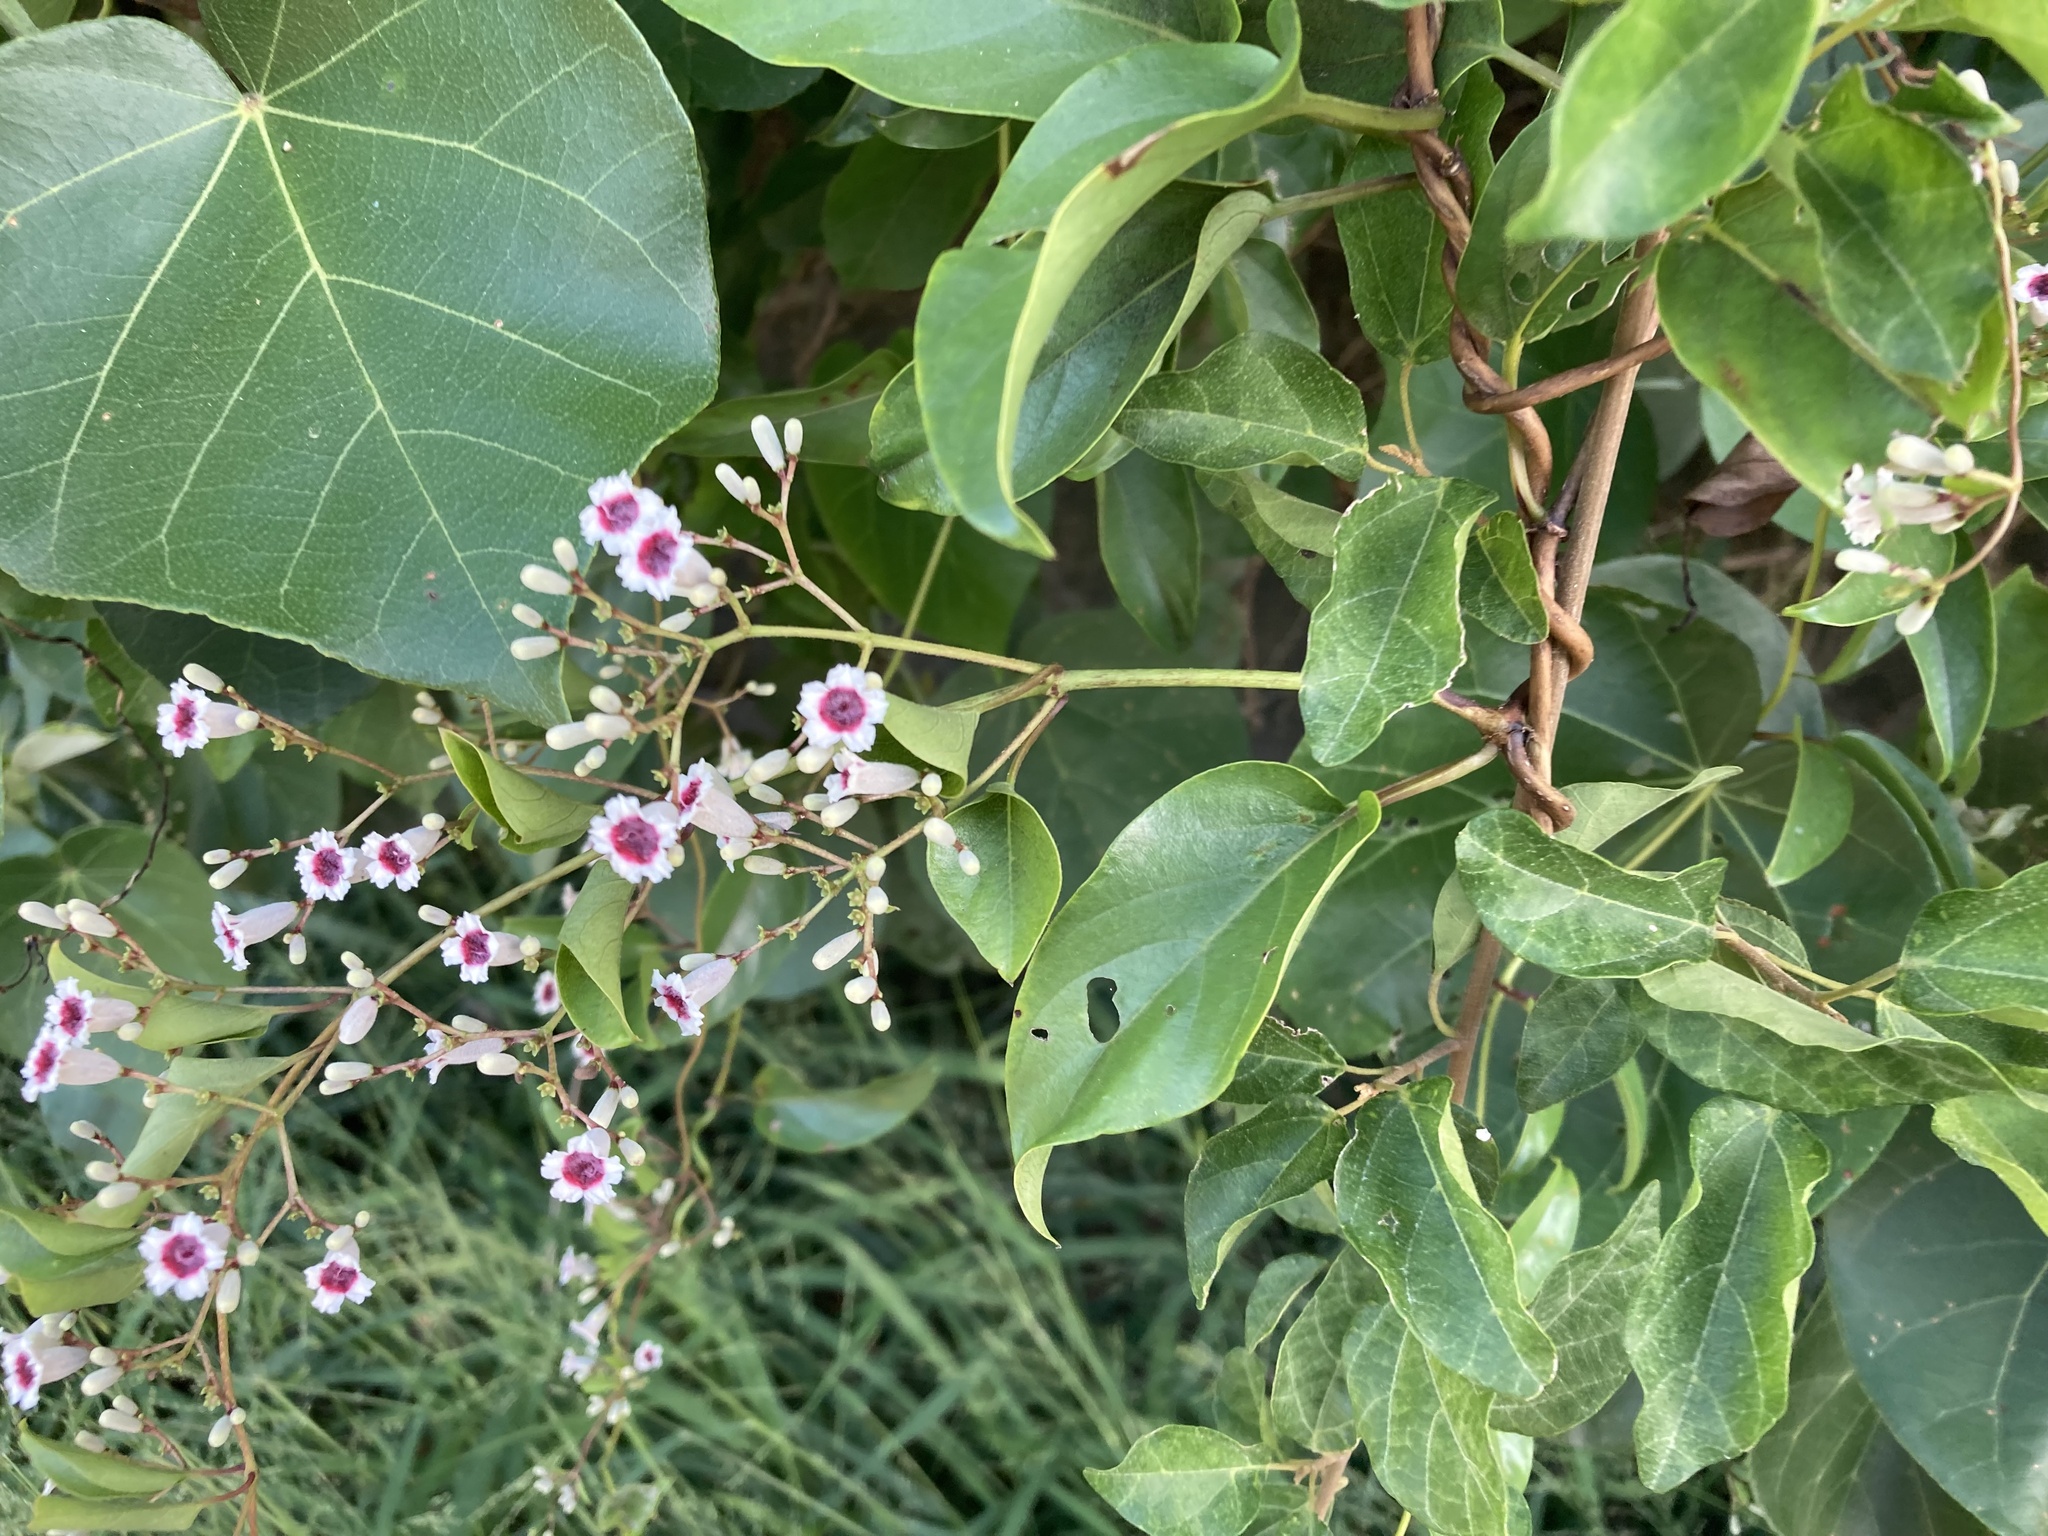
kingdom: Plantae
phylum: Tracheophyta
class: Magnoliopsida
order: Gentianales
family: Rubiaceae
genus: Paederia
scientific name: Paederia foetida
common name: Stinkvine
